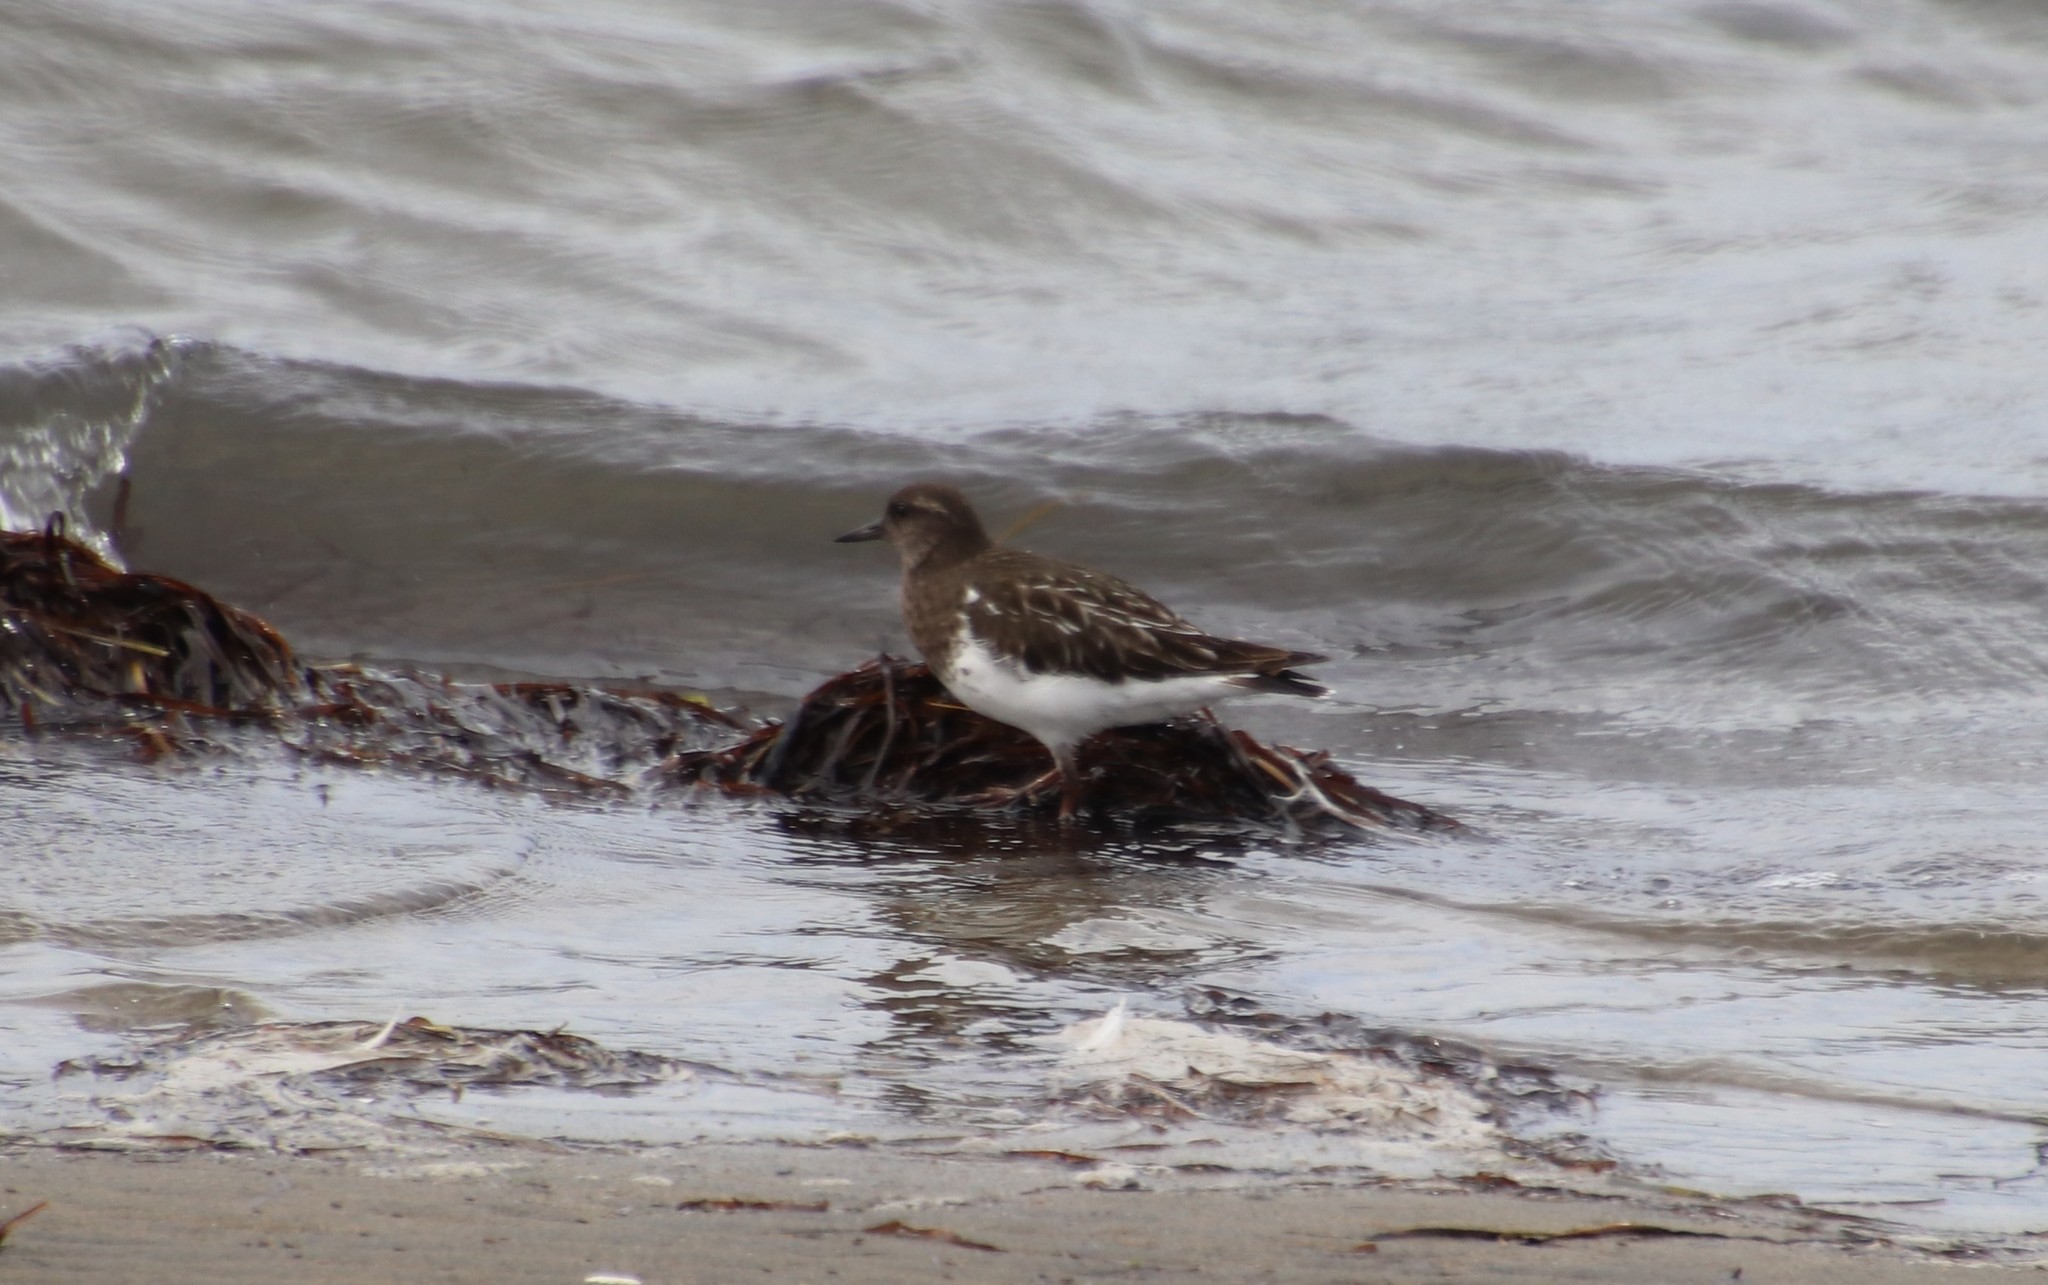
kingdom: Animalia
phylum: Chordata
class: Aves
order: Charadriiformes
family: Scolopacidae
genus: Arenaria
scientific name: Arenaria melanocephala
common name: Black turnstone
